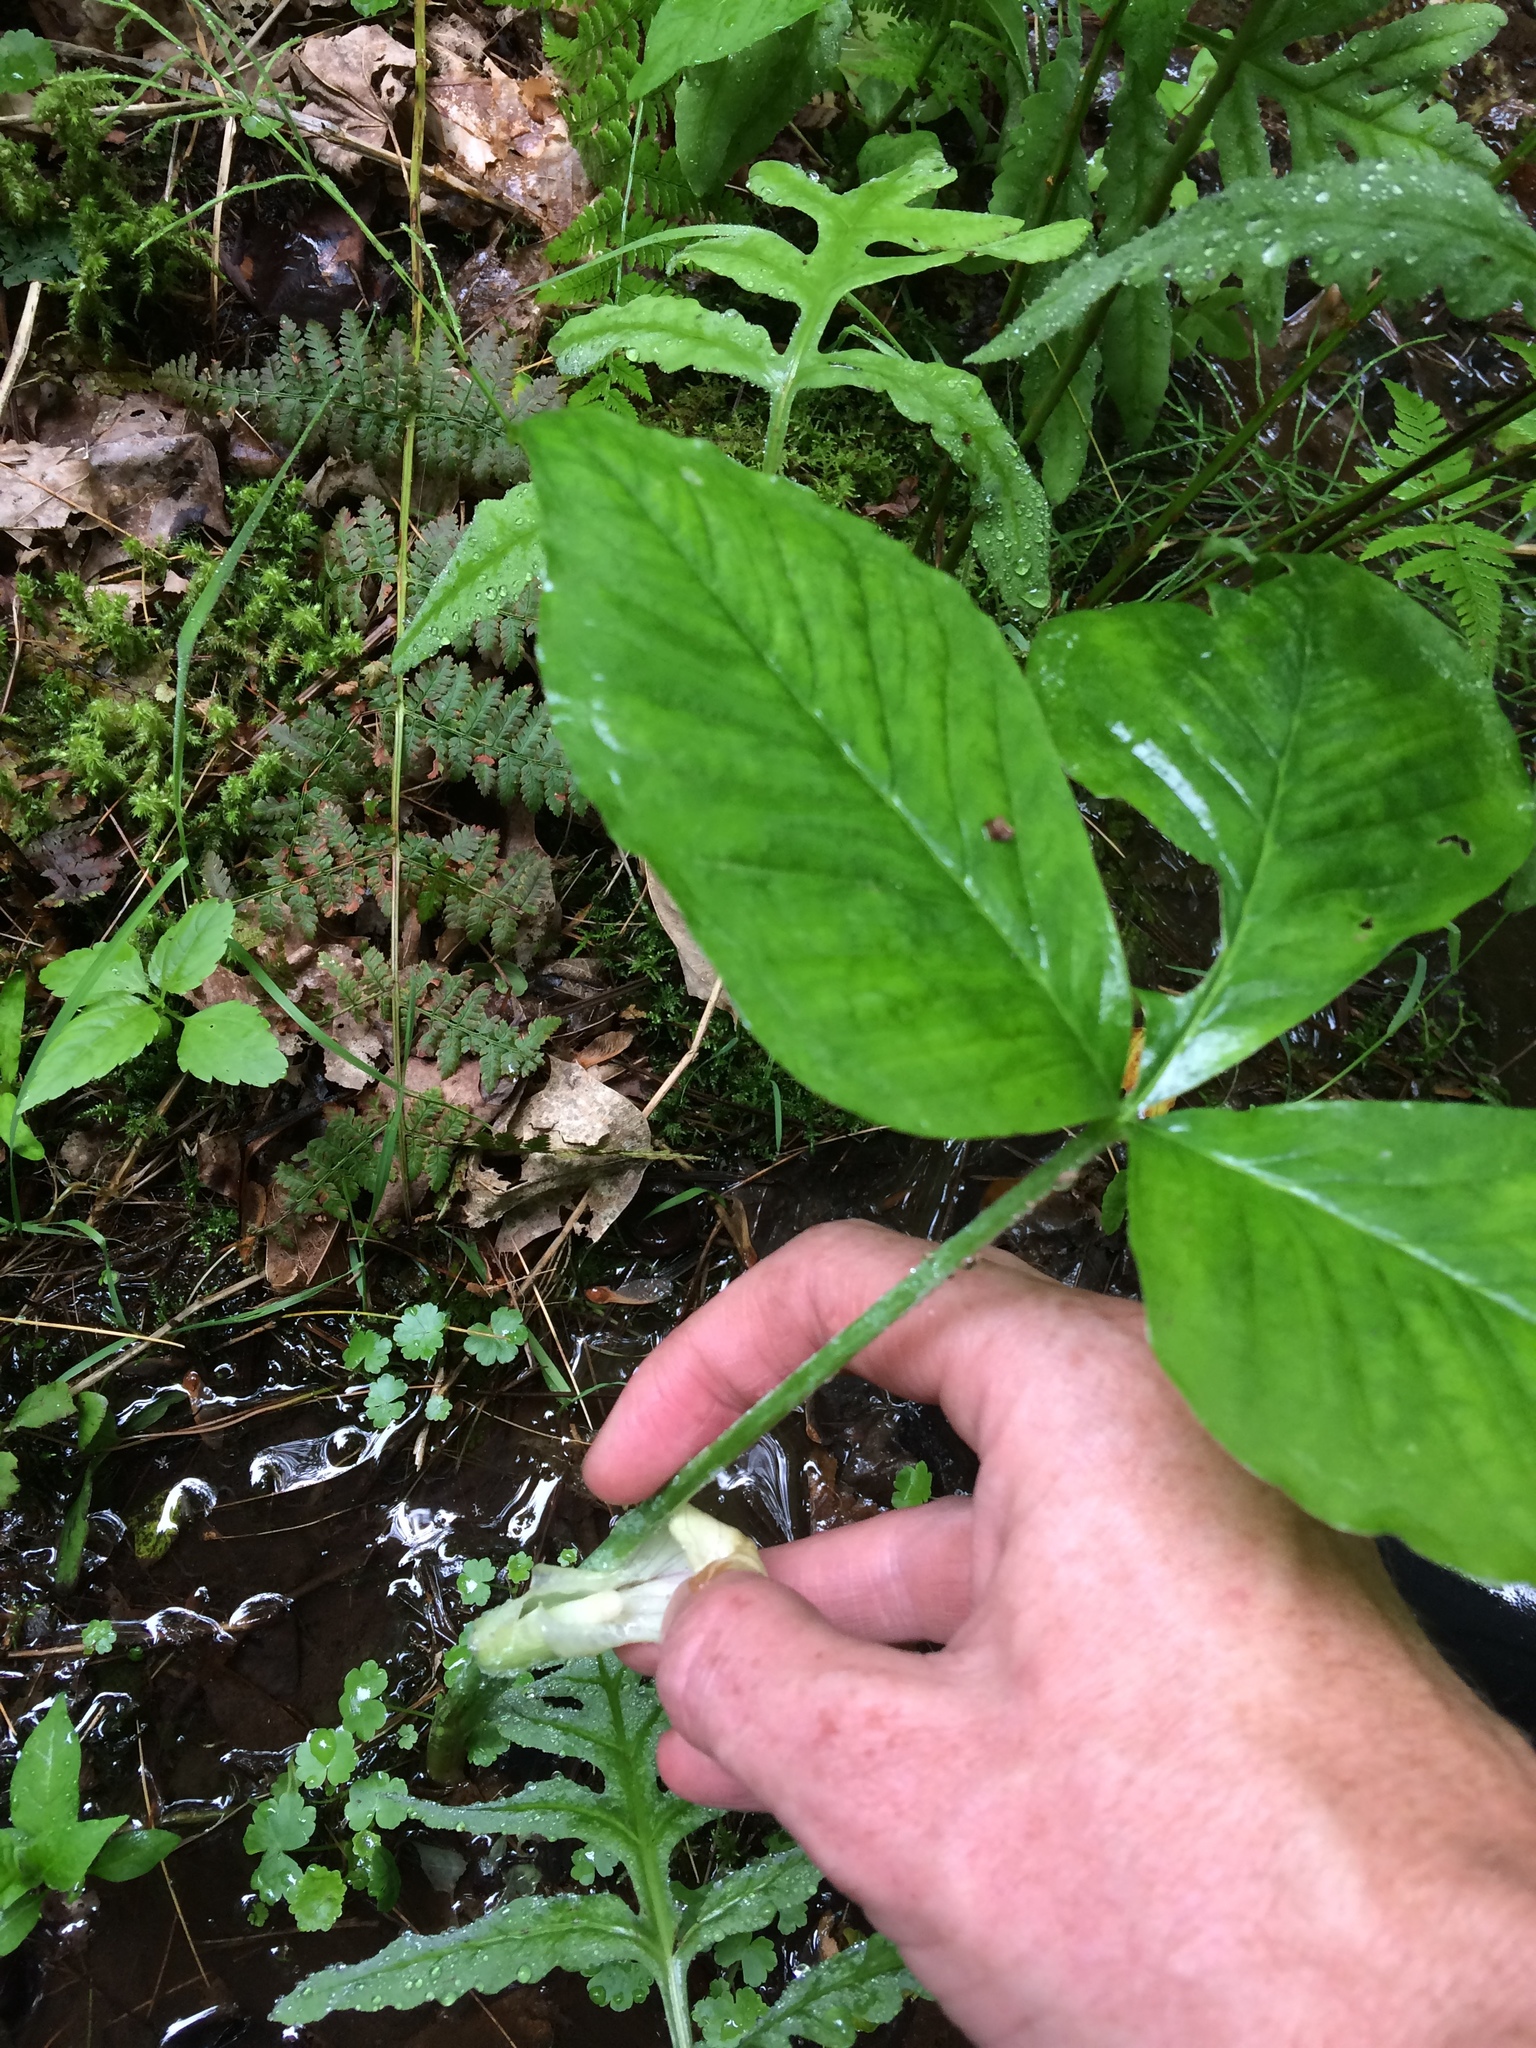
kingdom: Plantae
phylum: Tracheophyta
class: Liliopsida
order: Alismatales
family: Araceae
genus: Arisaema
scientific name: Arisaema triphyllum
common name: Jack-in-the-pulpit
